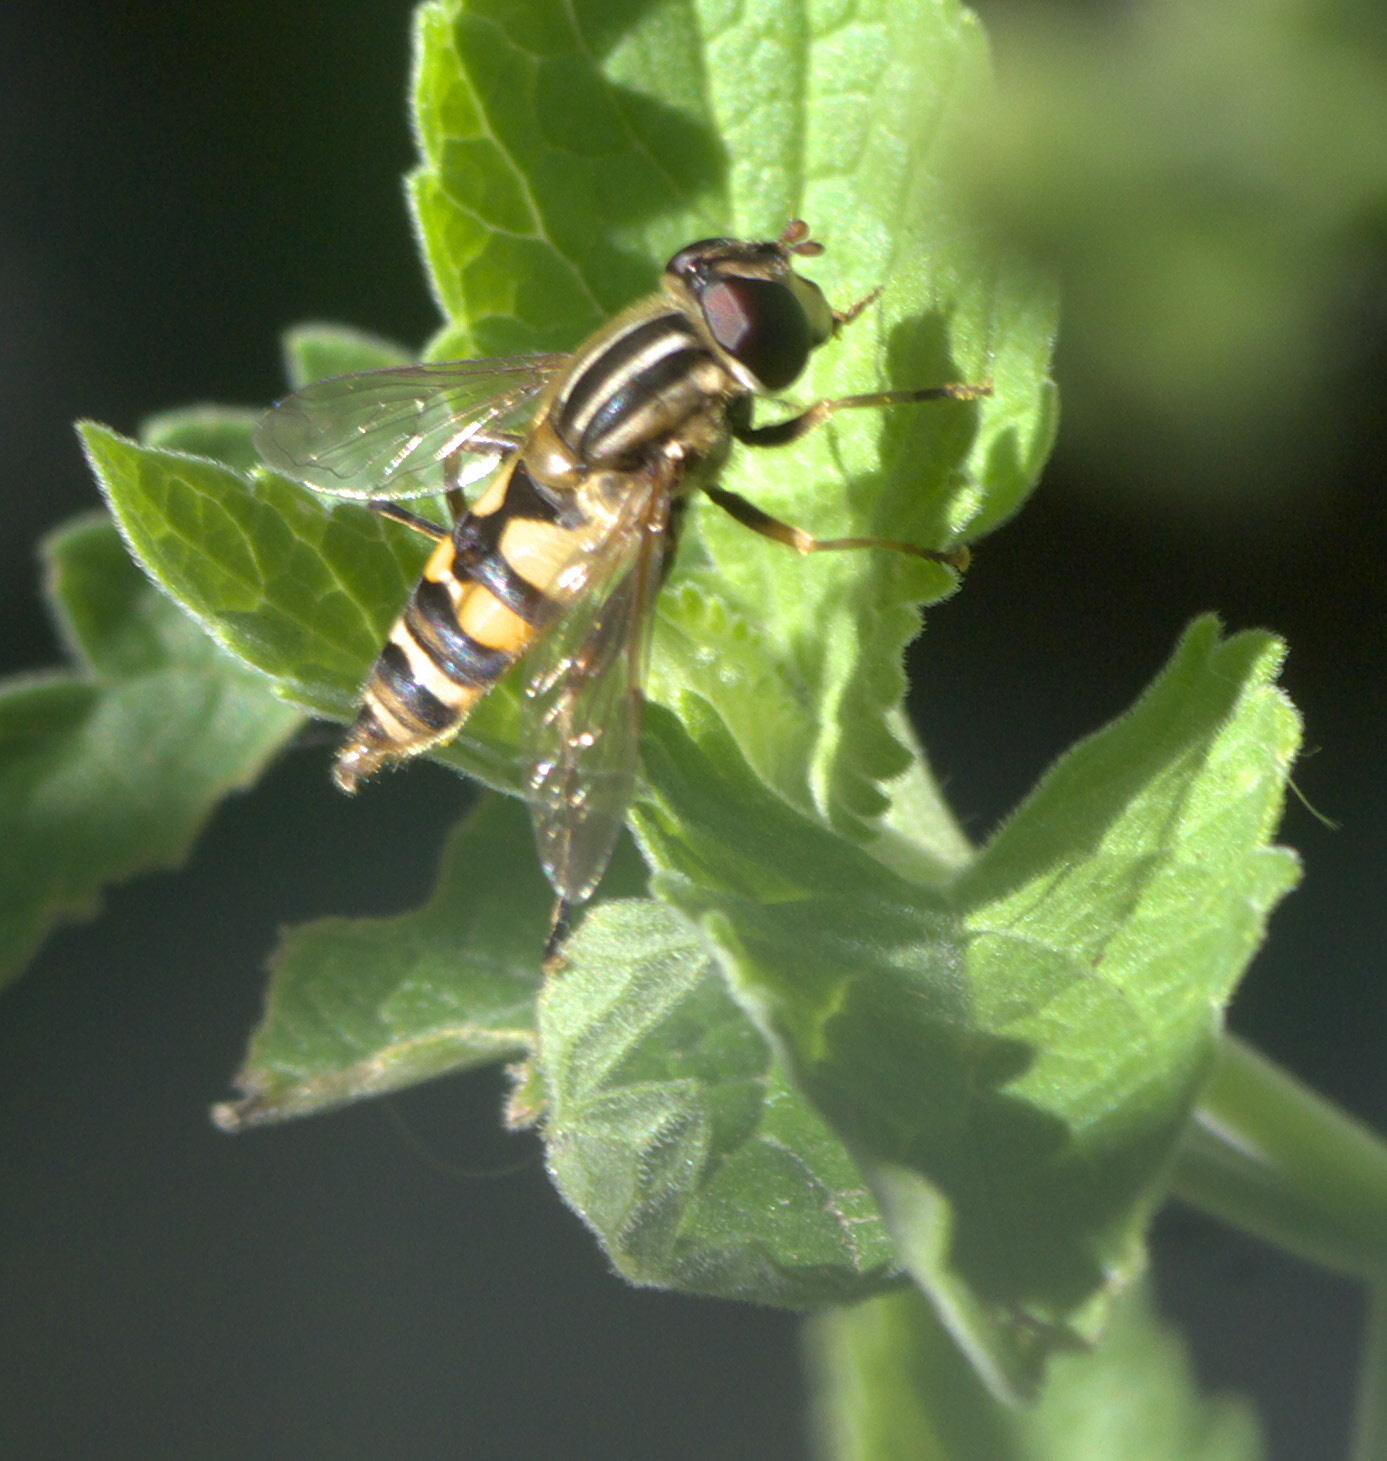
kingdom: Animalia
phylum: Arthropoda
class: Insecta
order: Diptera
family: Syrphidae
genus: Helophilus
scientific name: Helophilus fasciatus
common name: Narrow-headed marsh fly
